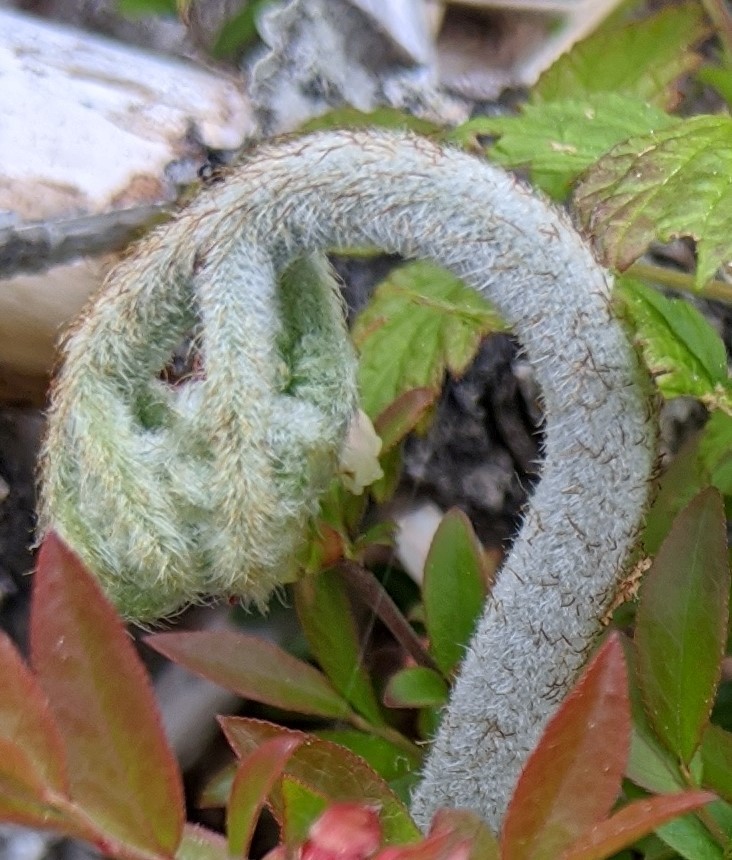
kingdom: Plantae
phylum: Tracheophyta
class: Polypodiopsida
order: Polypodiales
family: Dennstaedtiaceae
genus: Pteridium
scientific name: Pteridium aquilinum
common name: Bracken
